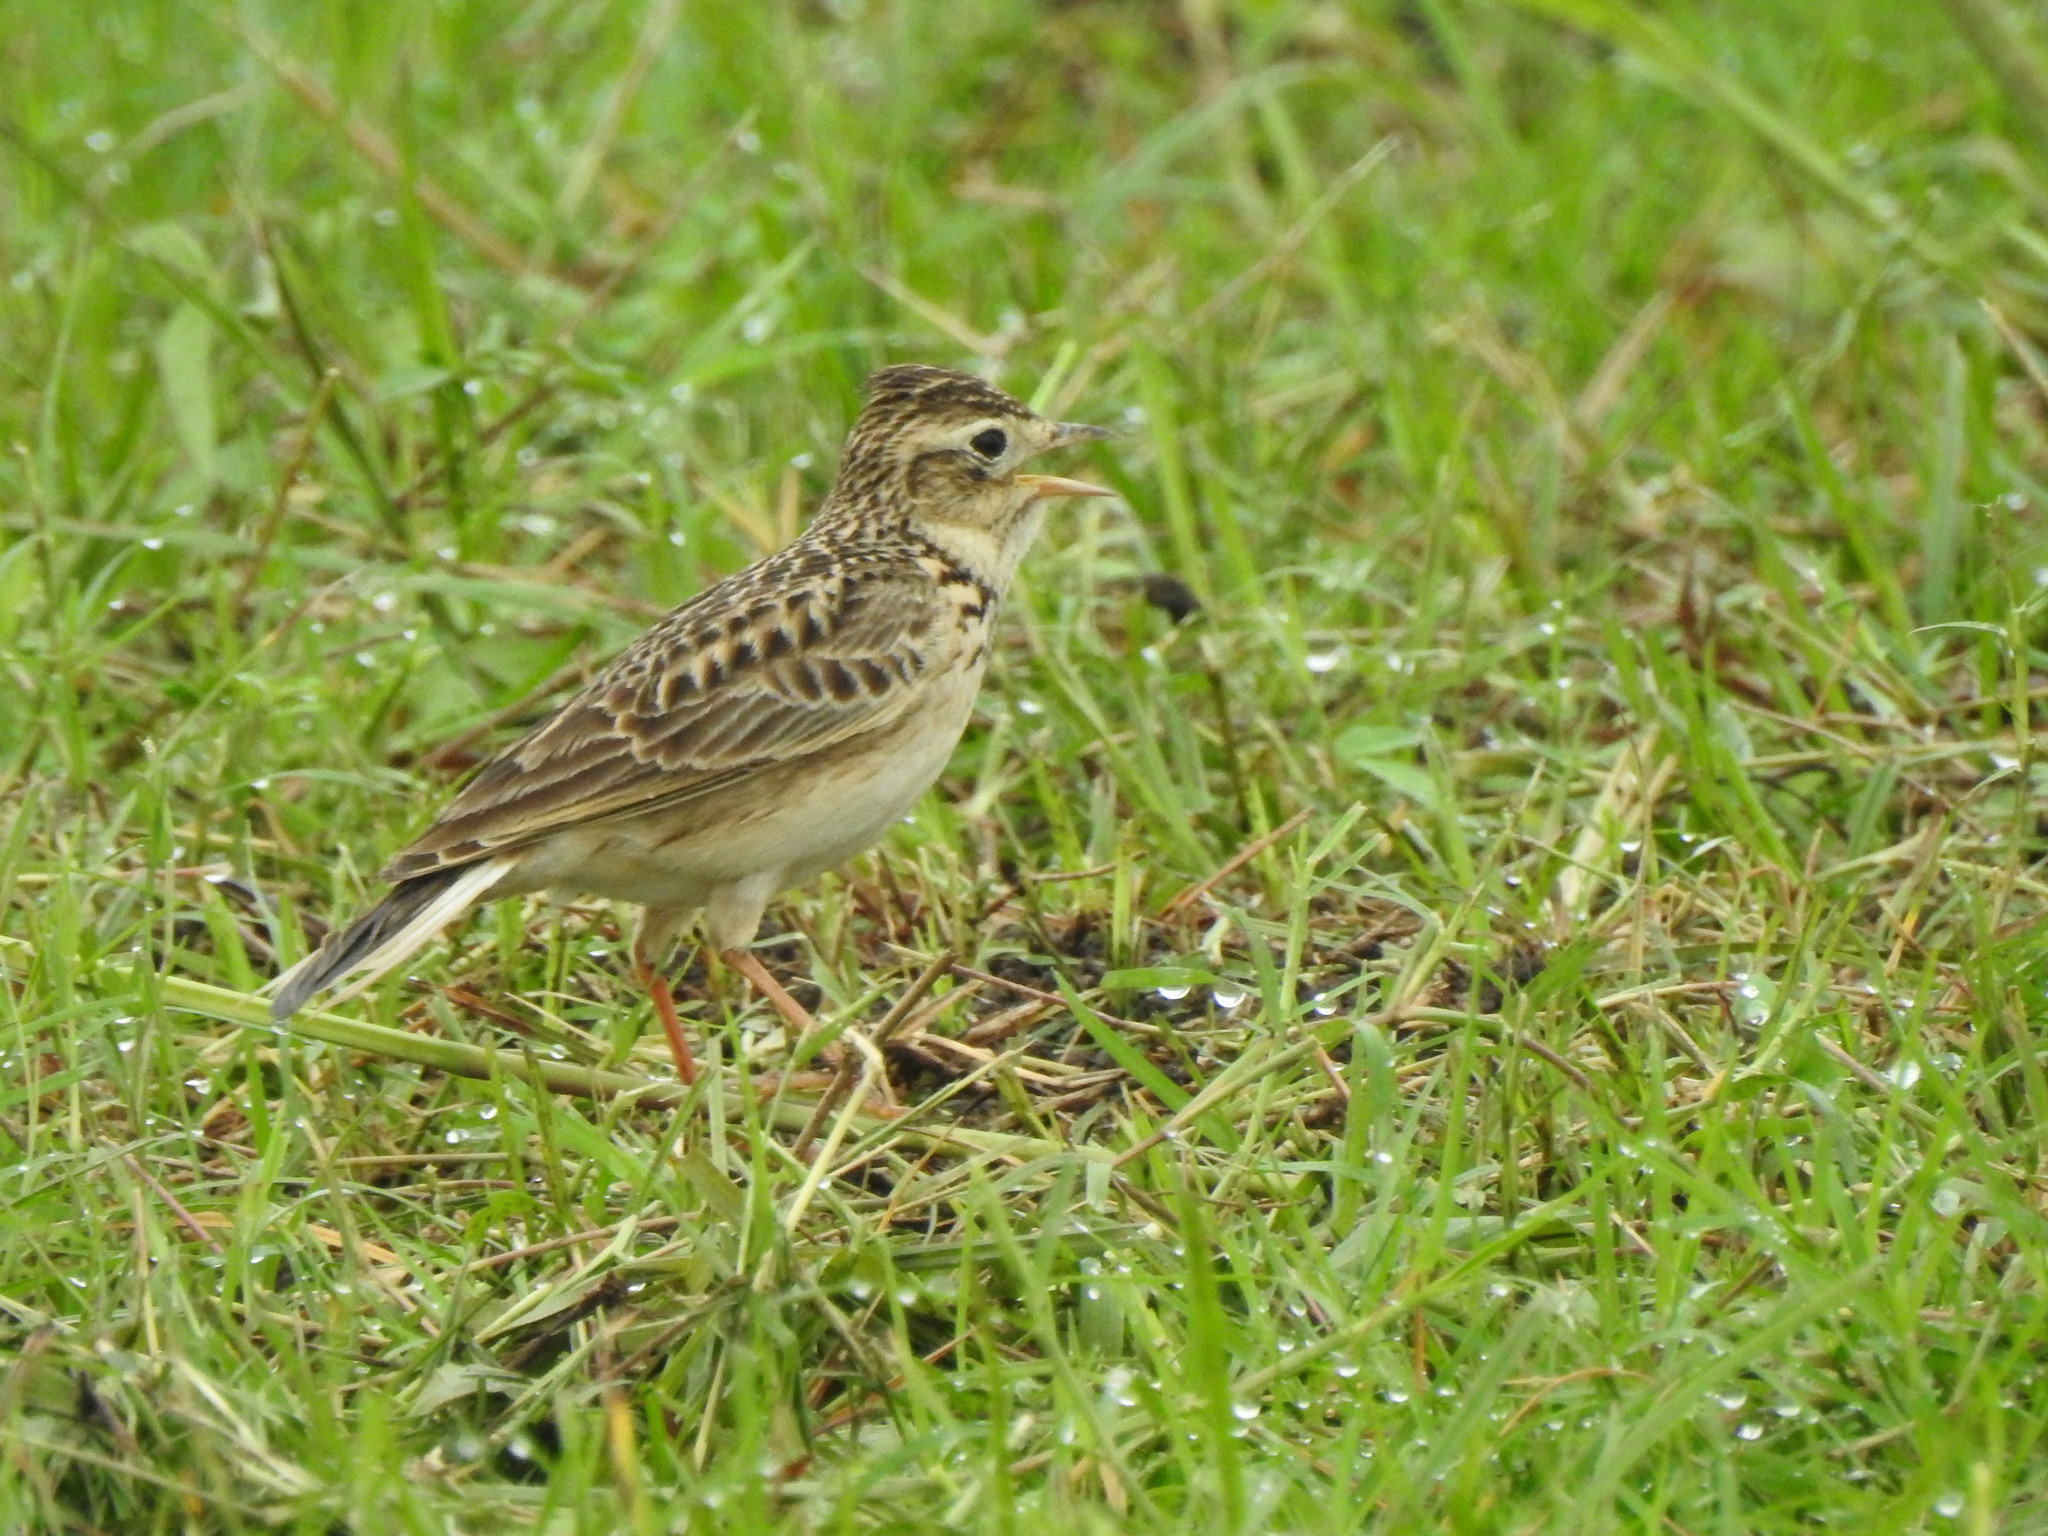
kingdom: Animalia
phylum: Chordata
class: Aves
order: Passeriformes
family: Alaudidae
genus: Alauda
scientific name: Alauda gulgula
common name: Oriental skylark
